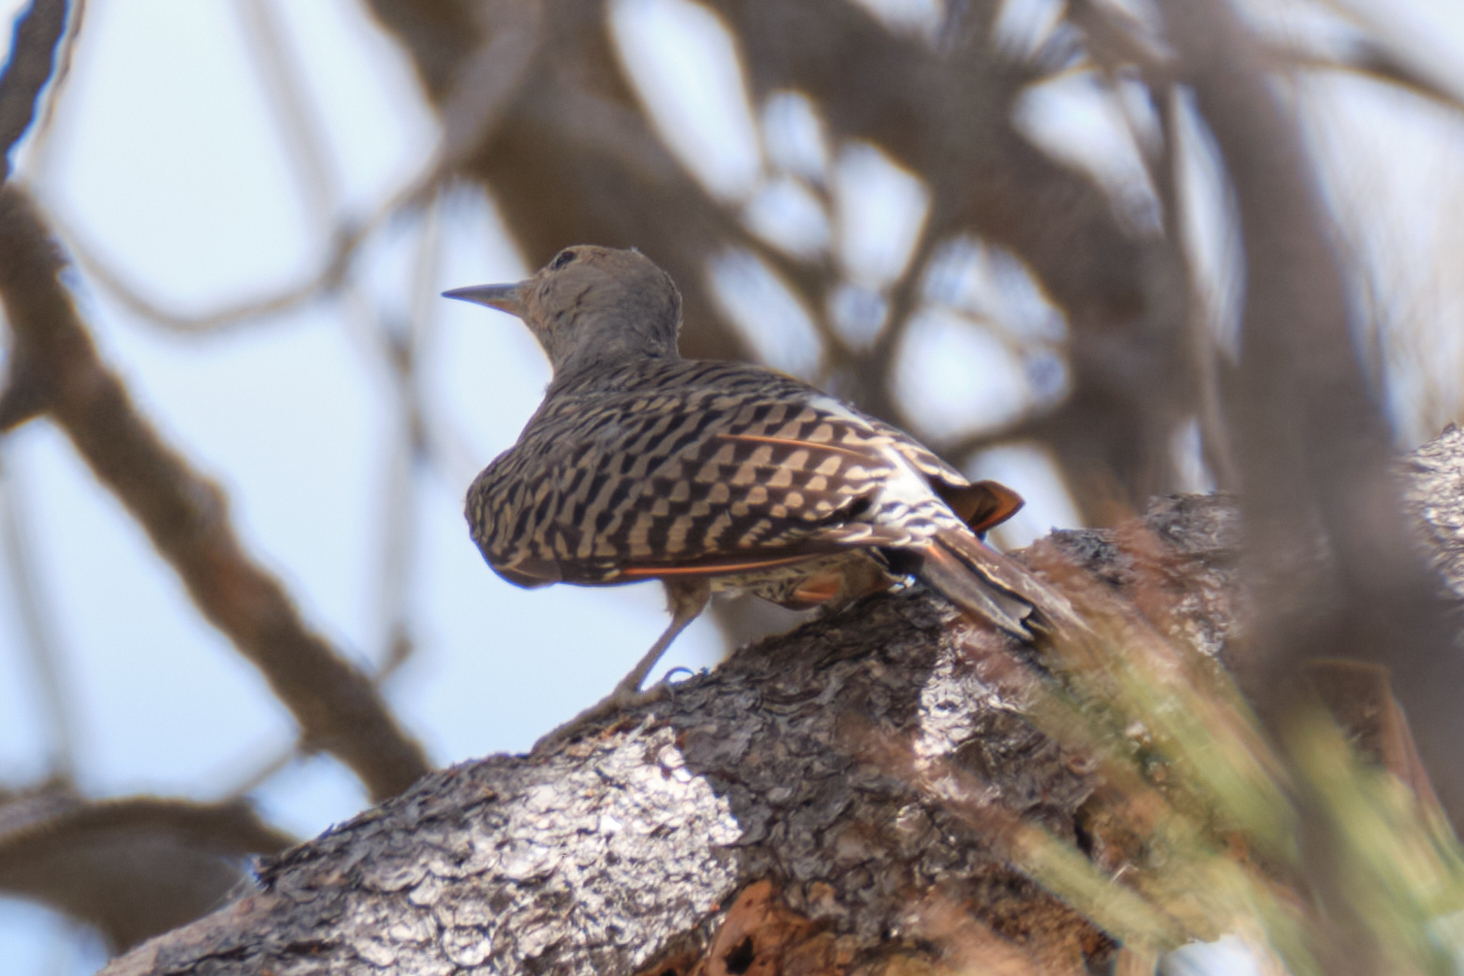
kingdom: Animalia
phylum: Chordata
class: Aves
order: Piciformes
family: Picidae
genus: Colaptes
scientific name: Colaptes auratus
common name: Northern flicker
